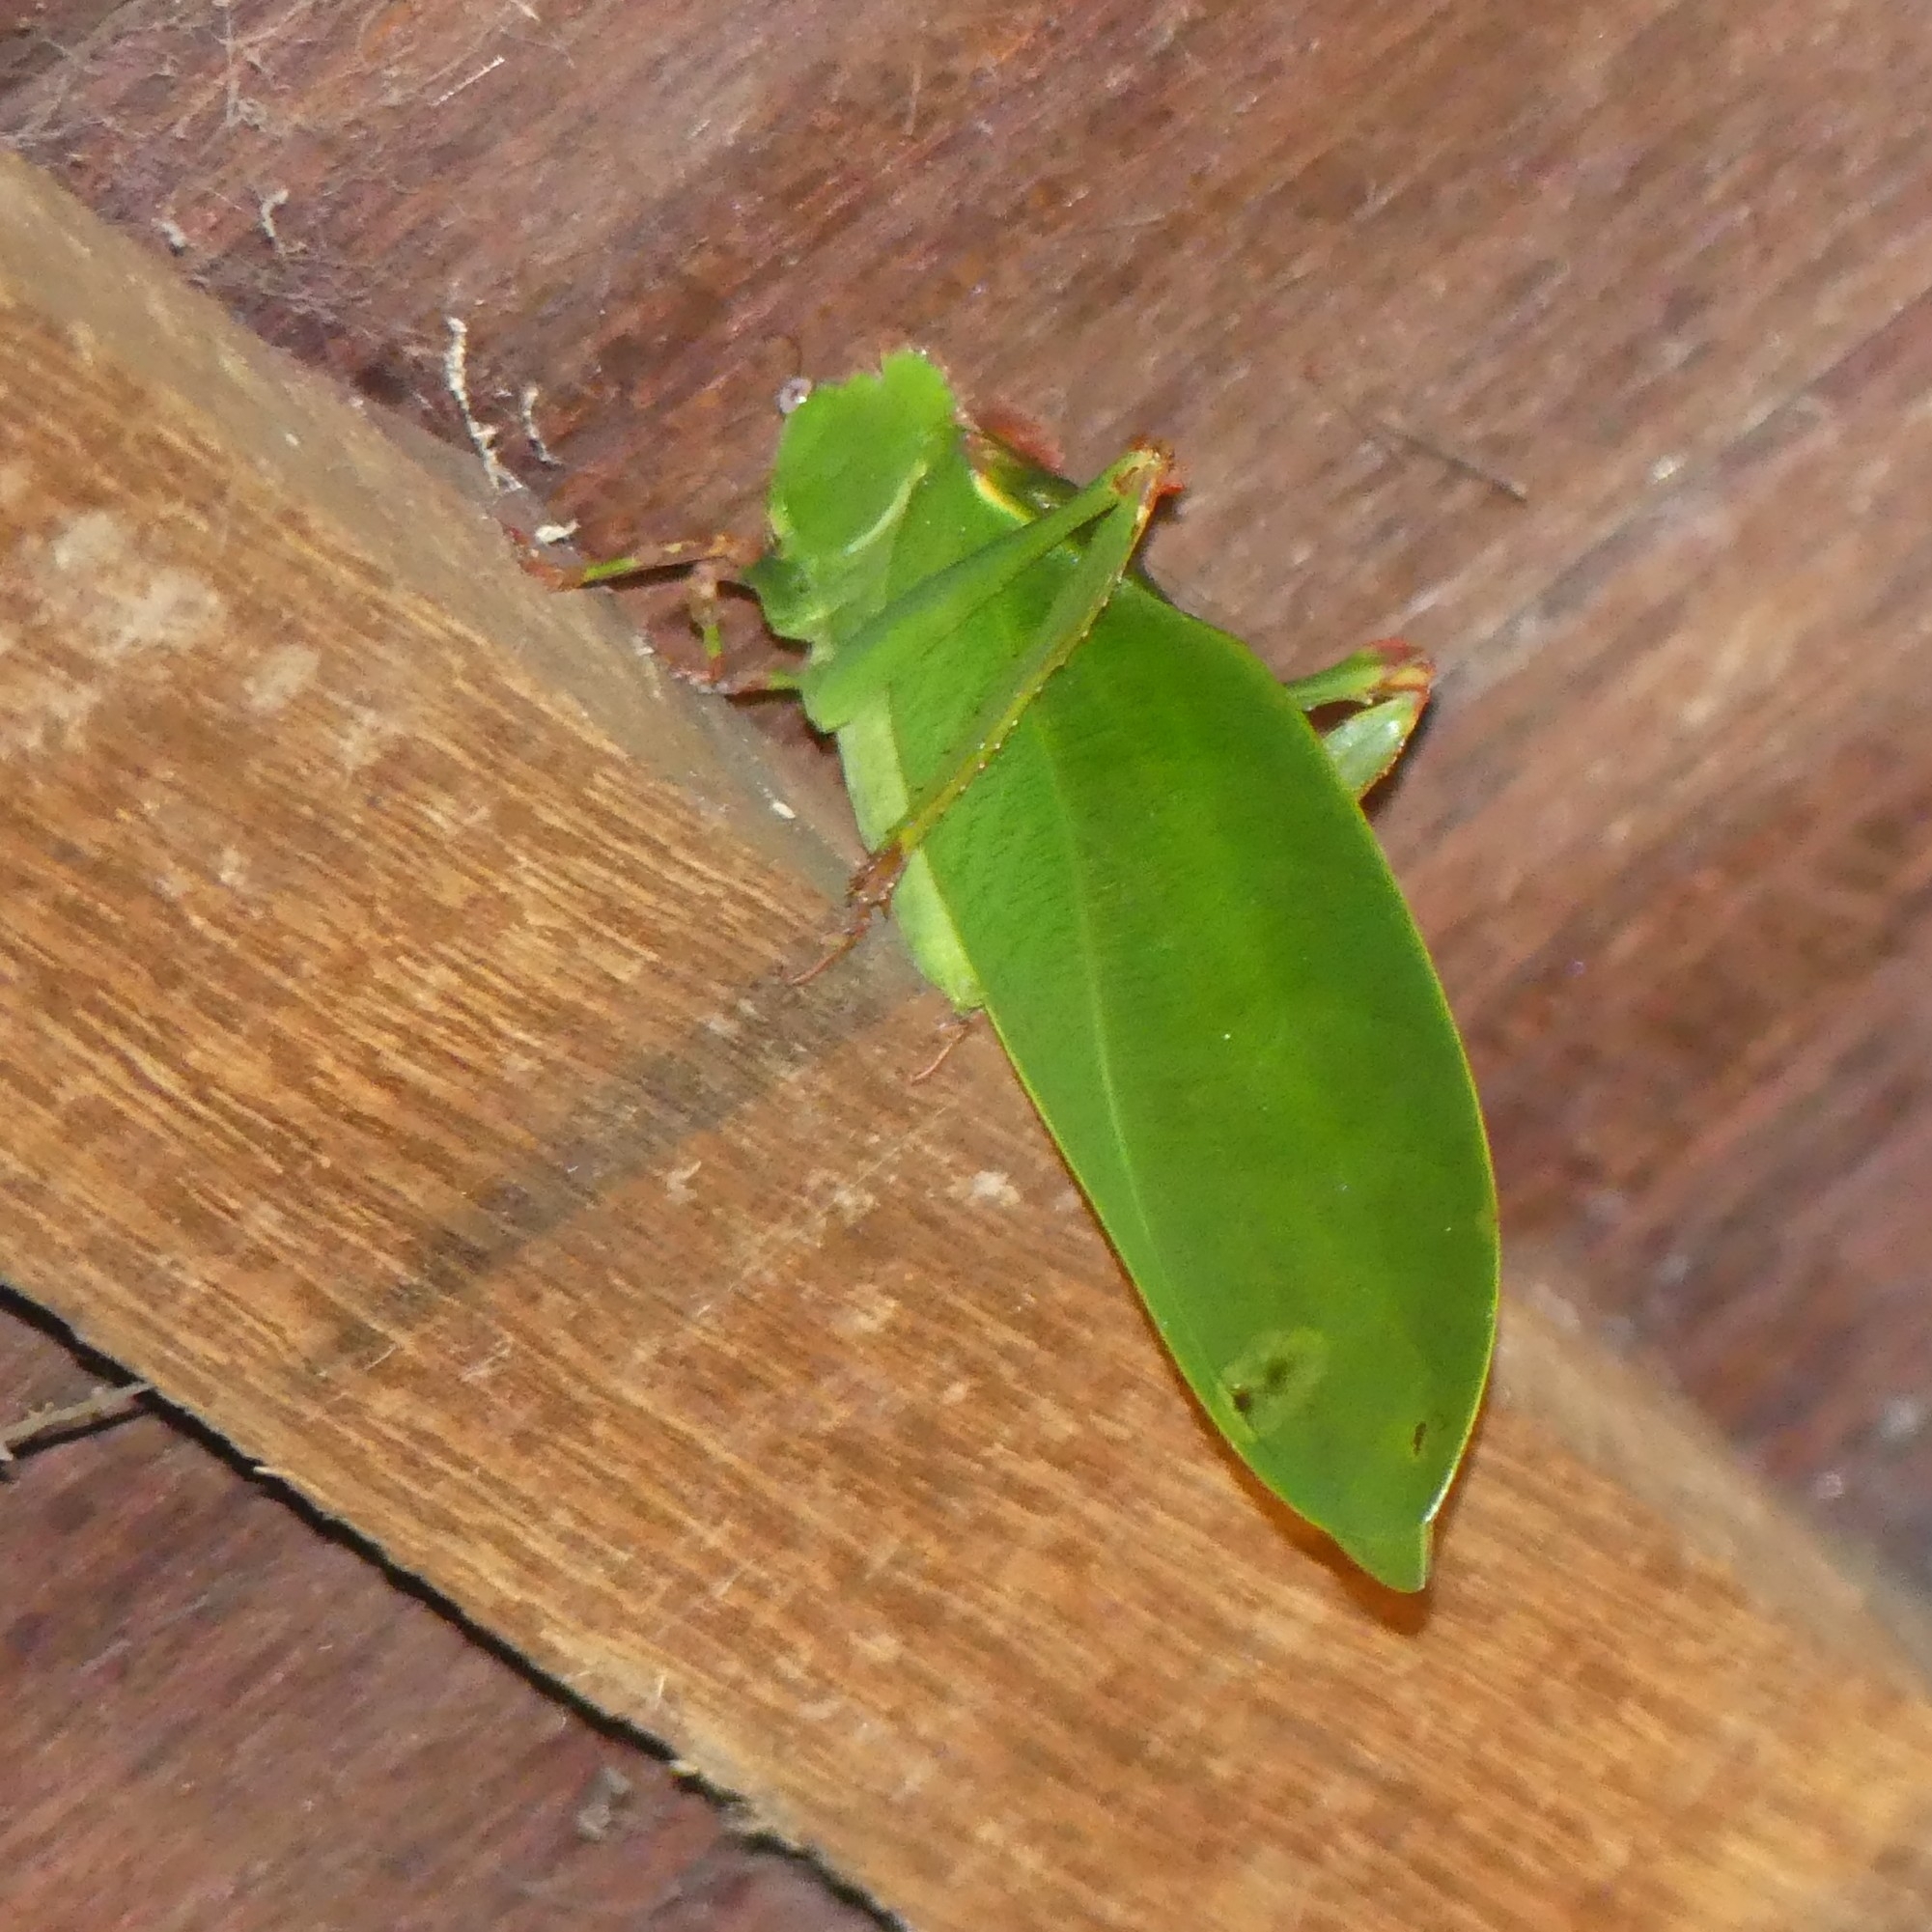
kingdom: Animalia
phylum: Arthropoda
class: Insecta
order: Orthoptera
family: Tettigoniidae
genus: Steirodon
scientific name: Steirodon
